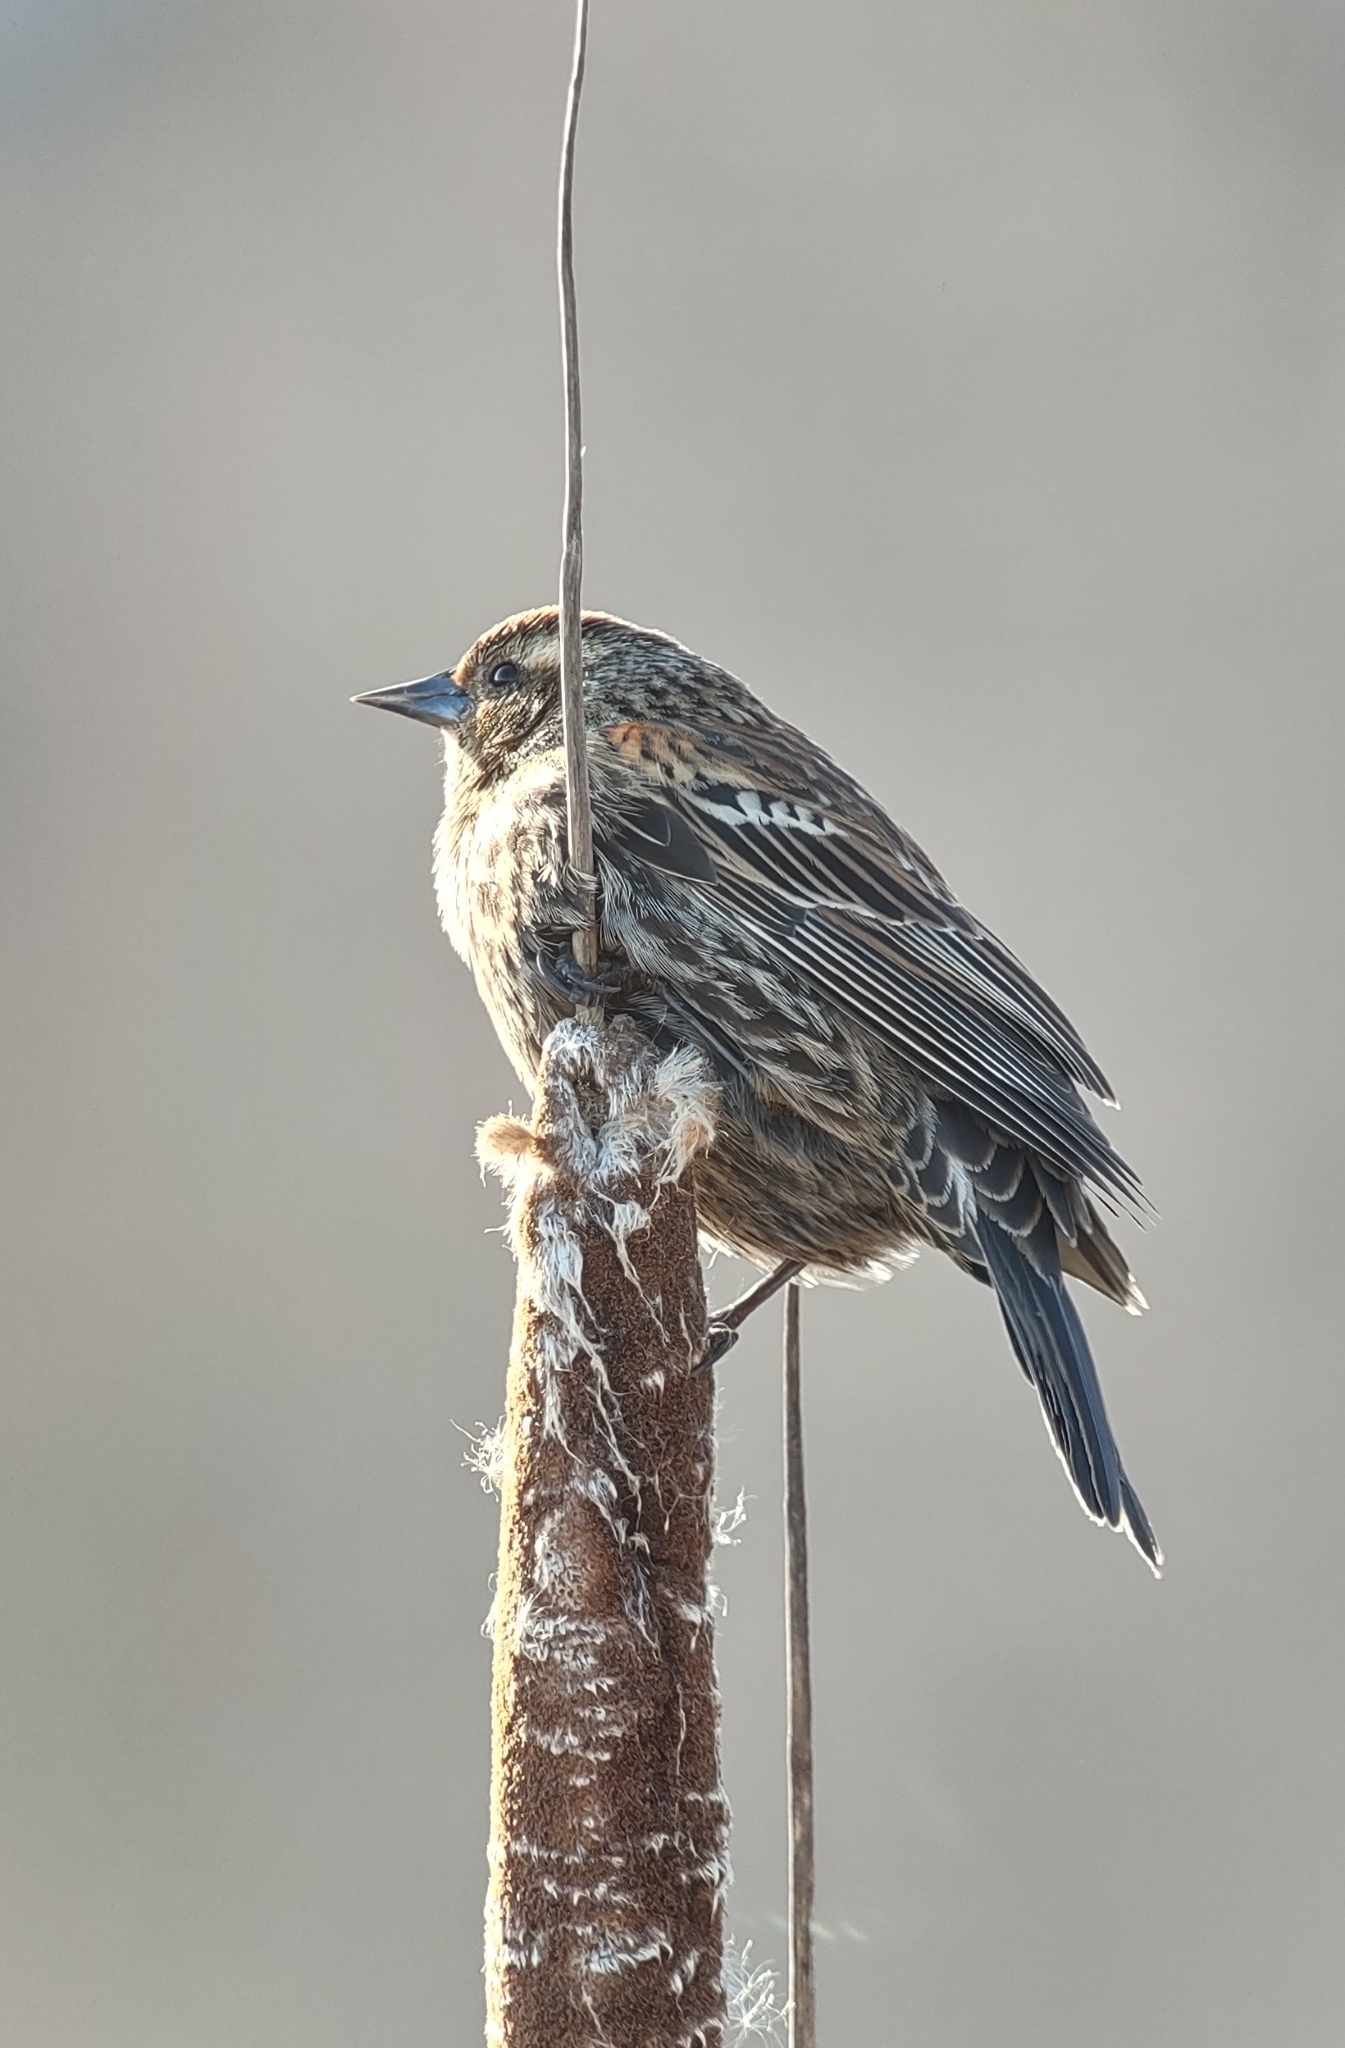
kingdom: Animalia
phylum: Chordata
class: Aves
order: Passeriformes
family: Icteridae
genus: Agelaius
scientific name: Agelaius phoeniceus
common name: Red-winged blackbird
